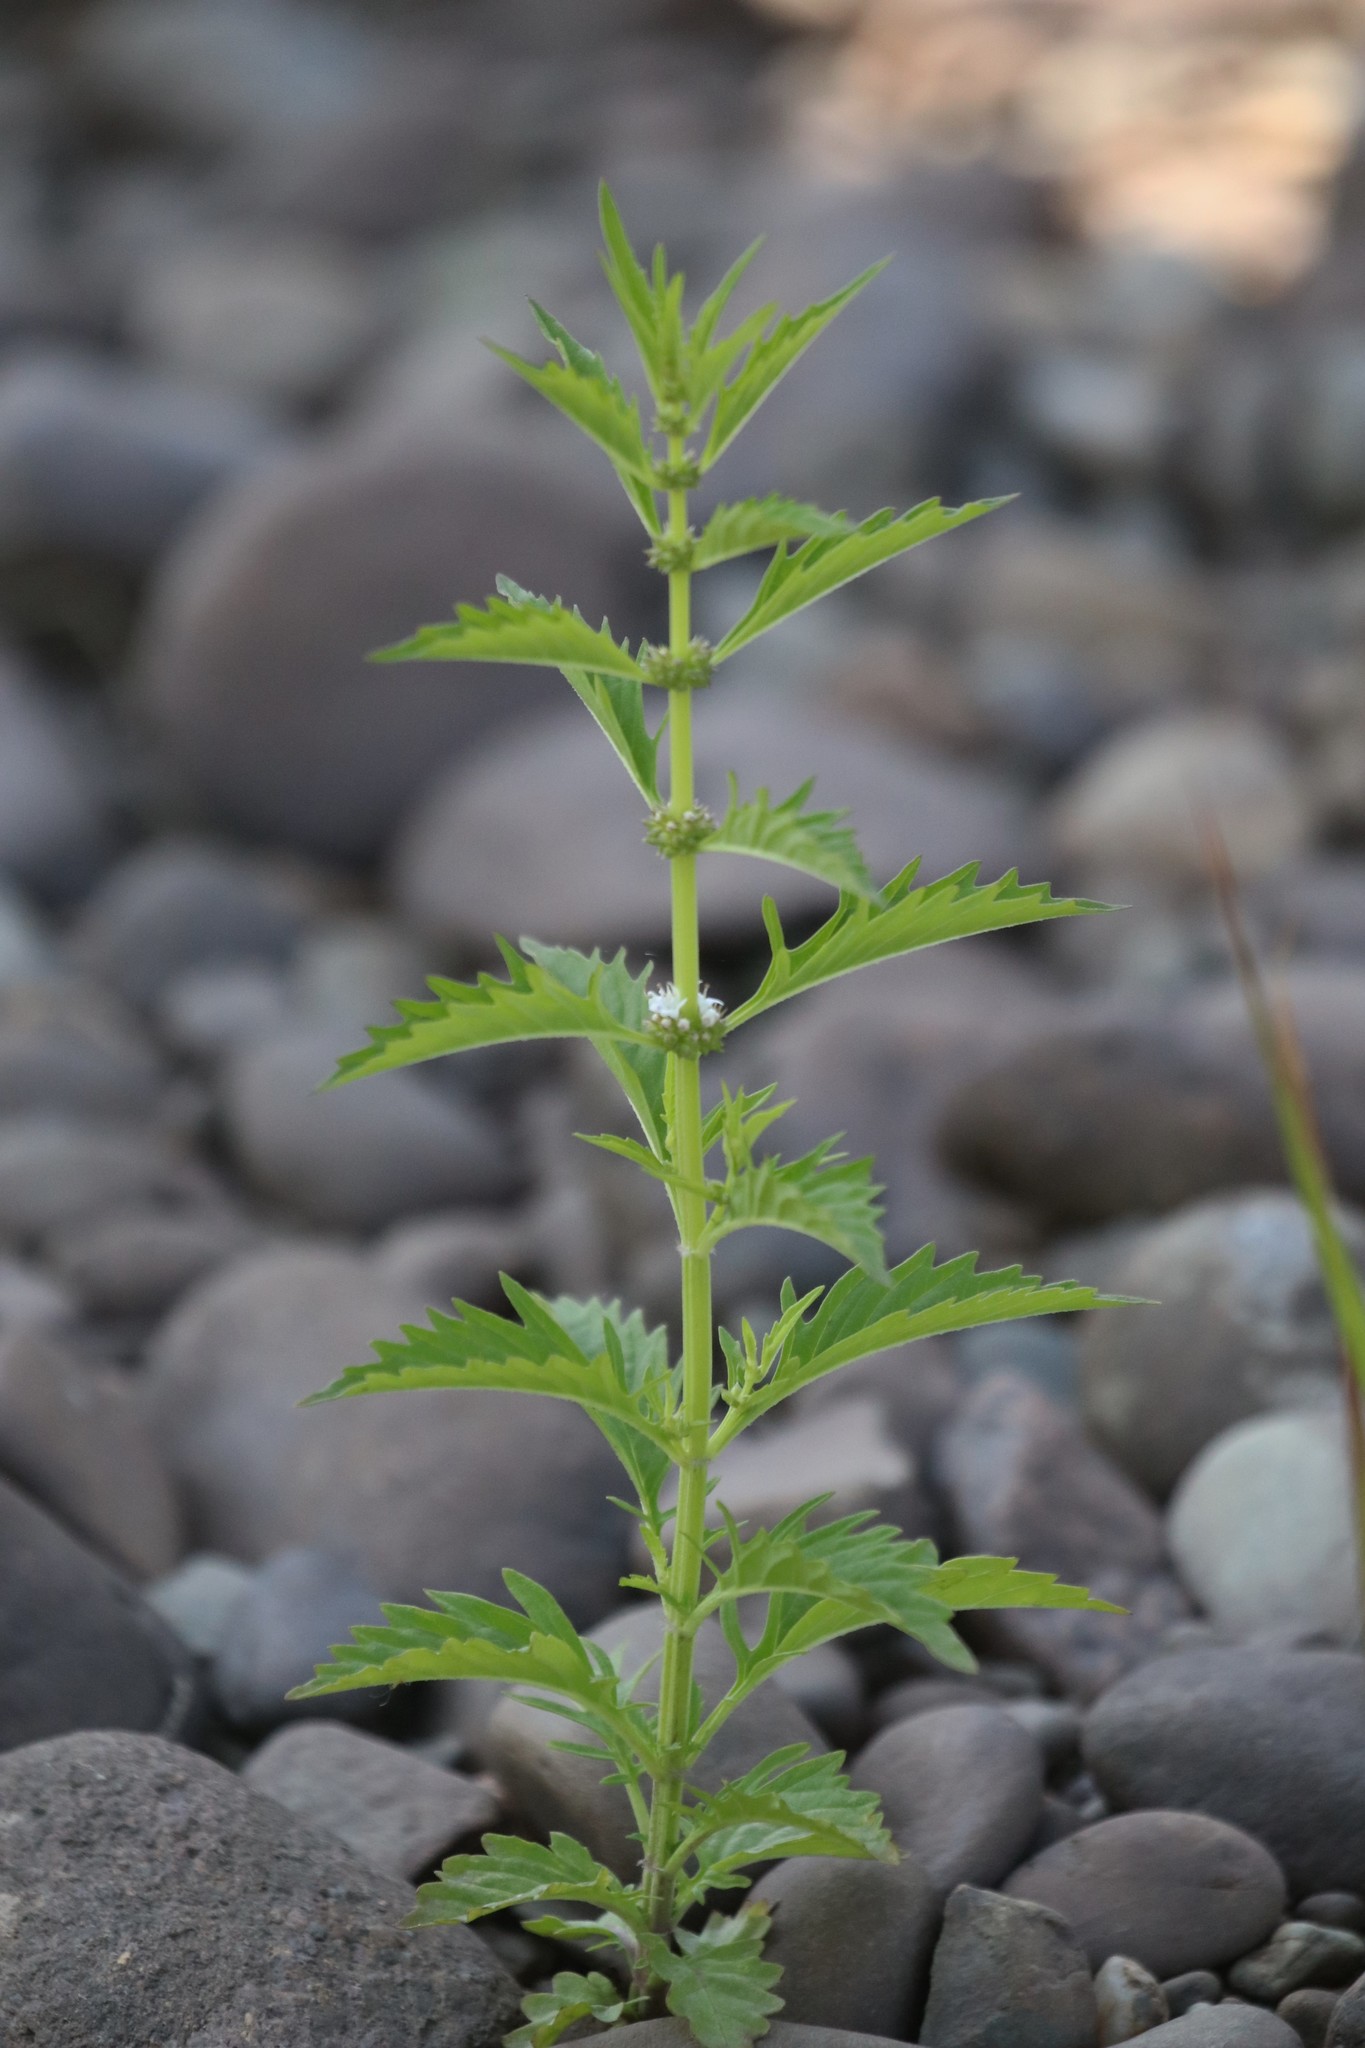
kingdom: Plantae
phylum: Tracheophyta
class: Magnoliopsida
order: Lamiales
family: Lamiaceae
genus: Lycopus
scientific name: Lycopus americanus
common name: American bugleweed
